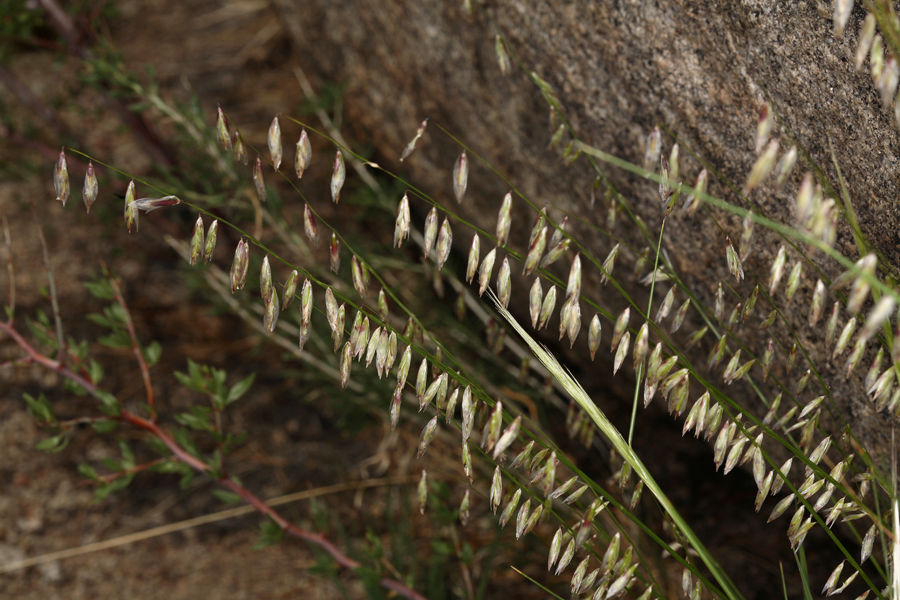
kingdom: Plantae
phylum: Tracheophyta
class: Liliopsida
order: Poales
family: Poaceae
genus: Melica
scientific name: Melica stricta
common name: Rock melic
